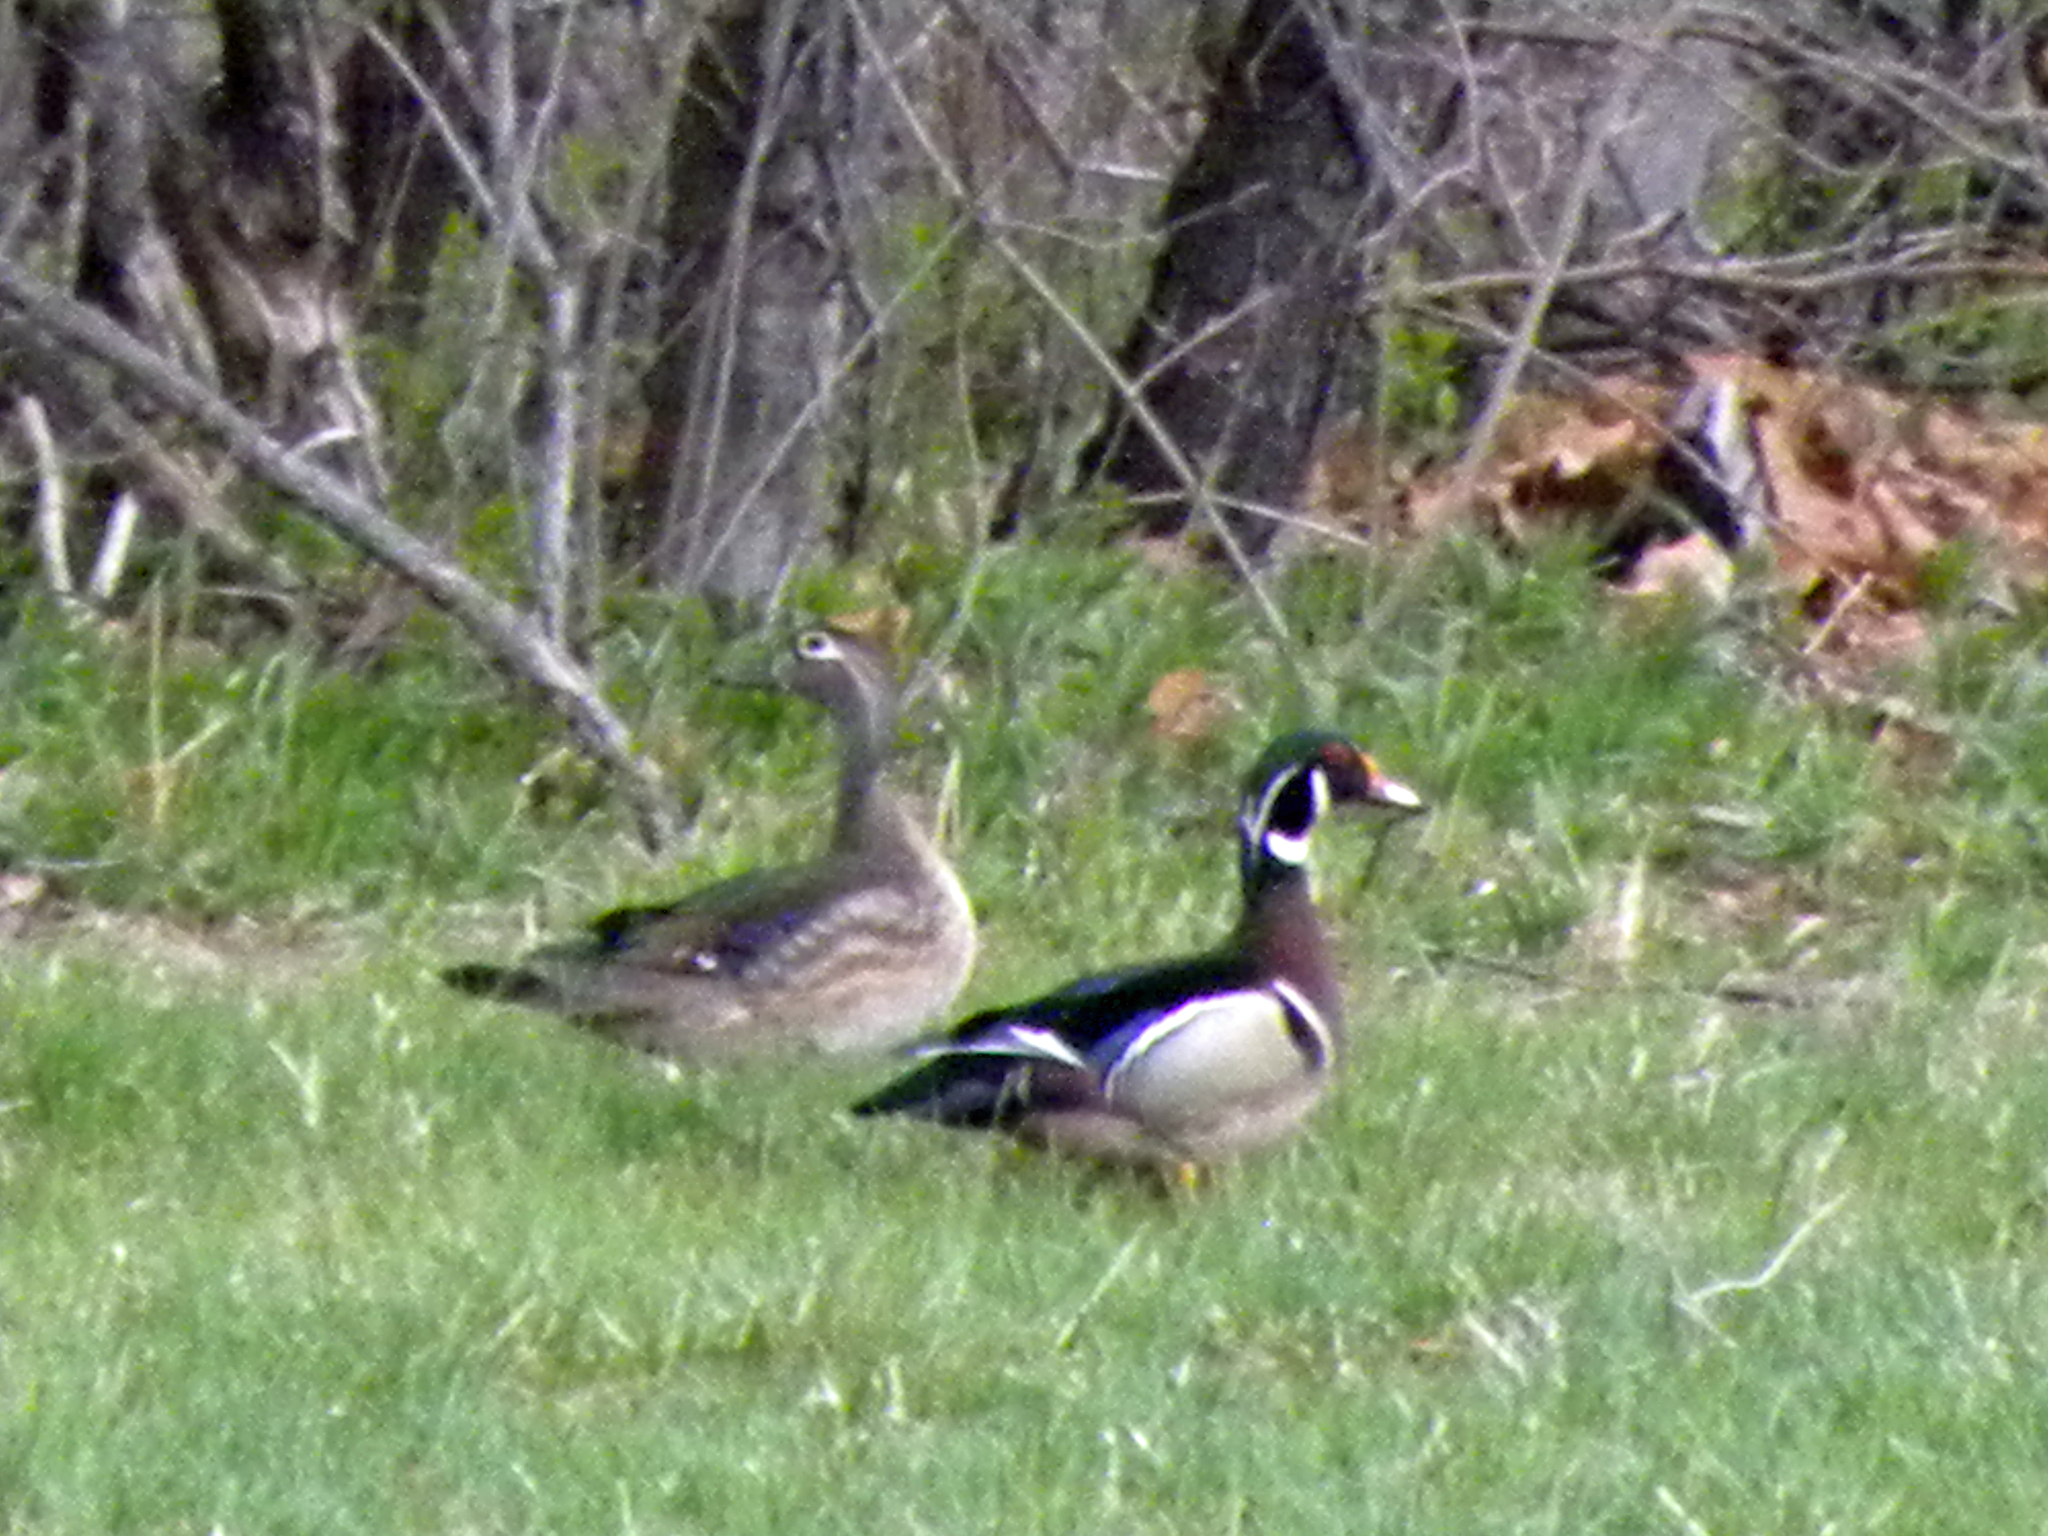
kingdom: Animalia
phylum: Chordata
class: Aves
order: Anseriformes
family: Anatidae
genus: Aix
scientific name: Aix sponsa
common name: Wood duck
